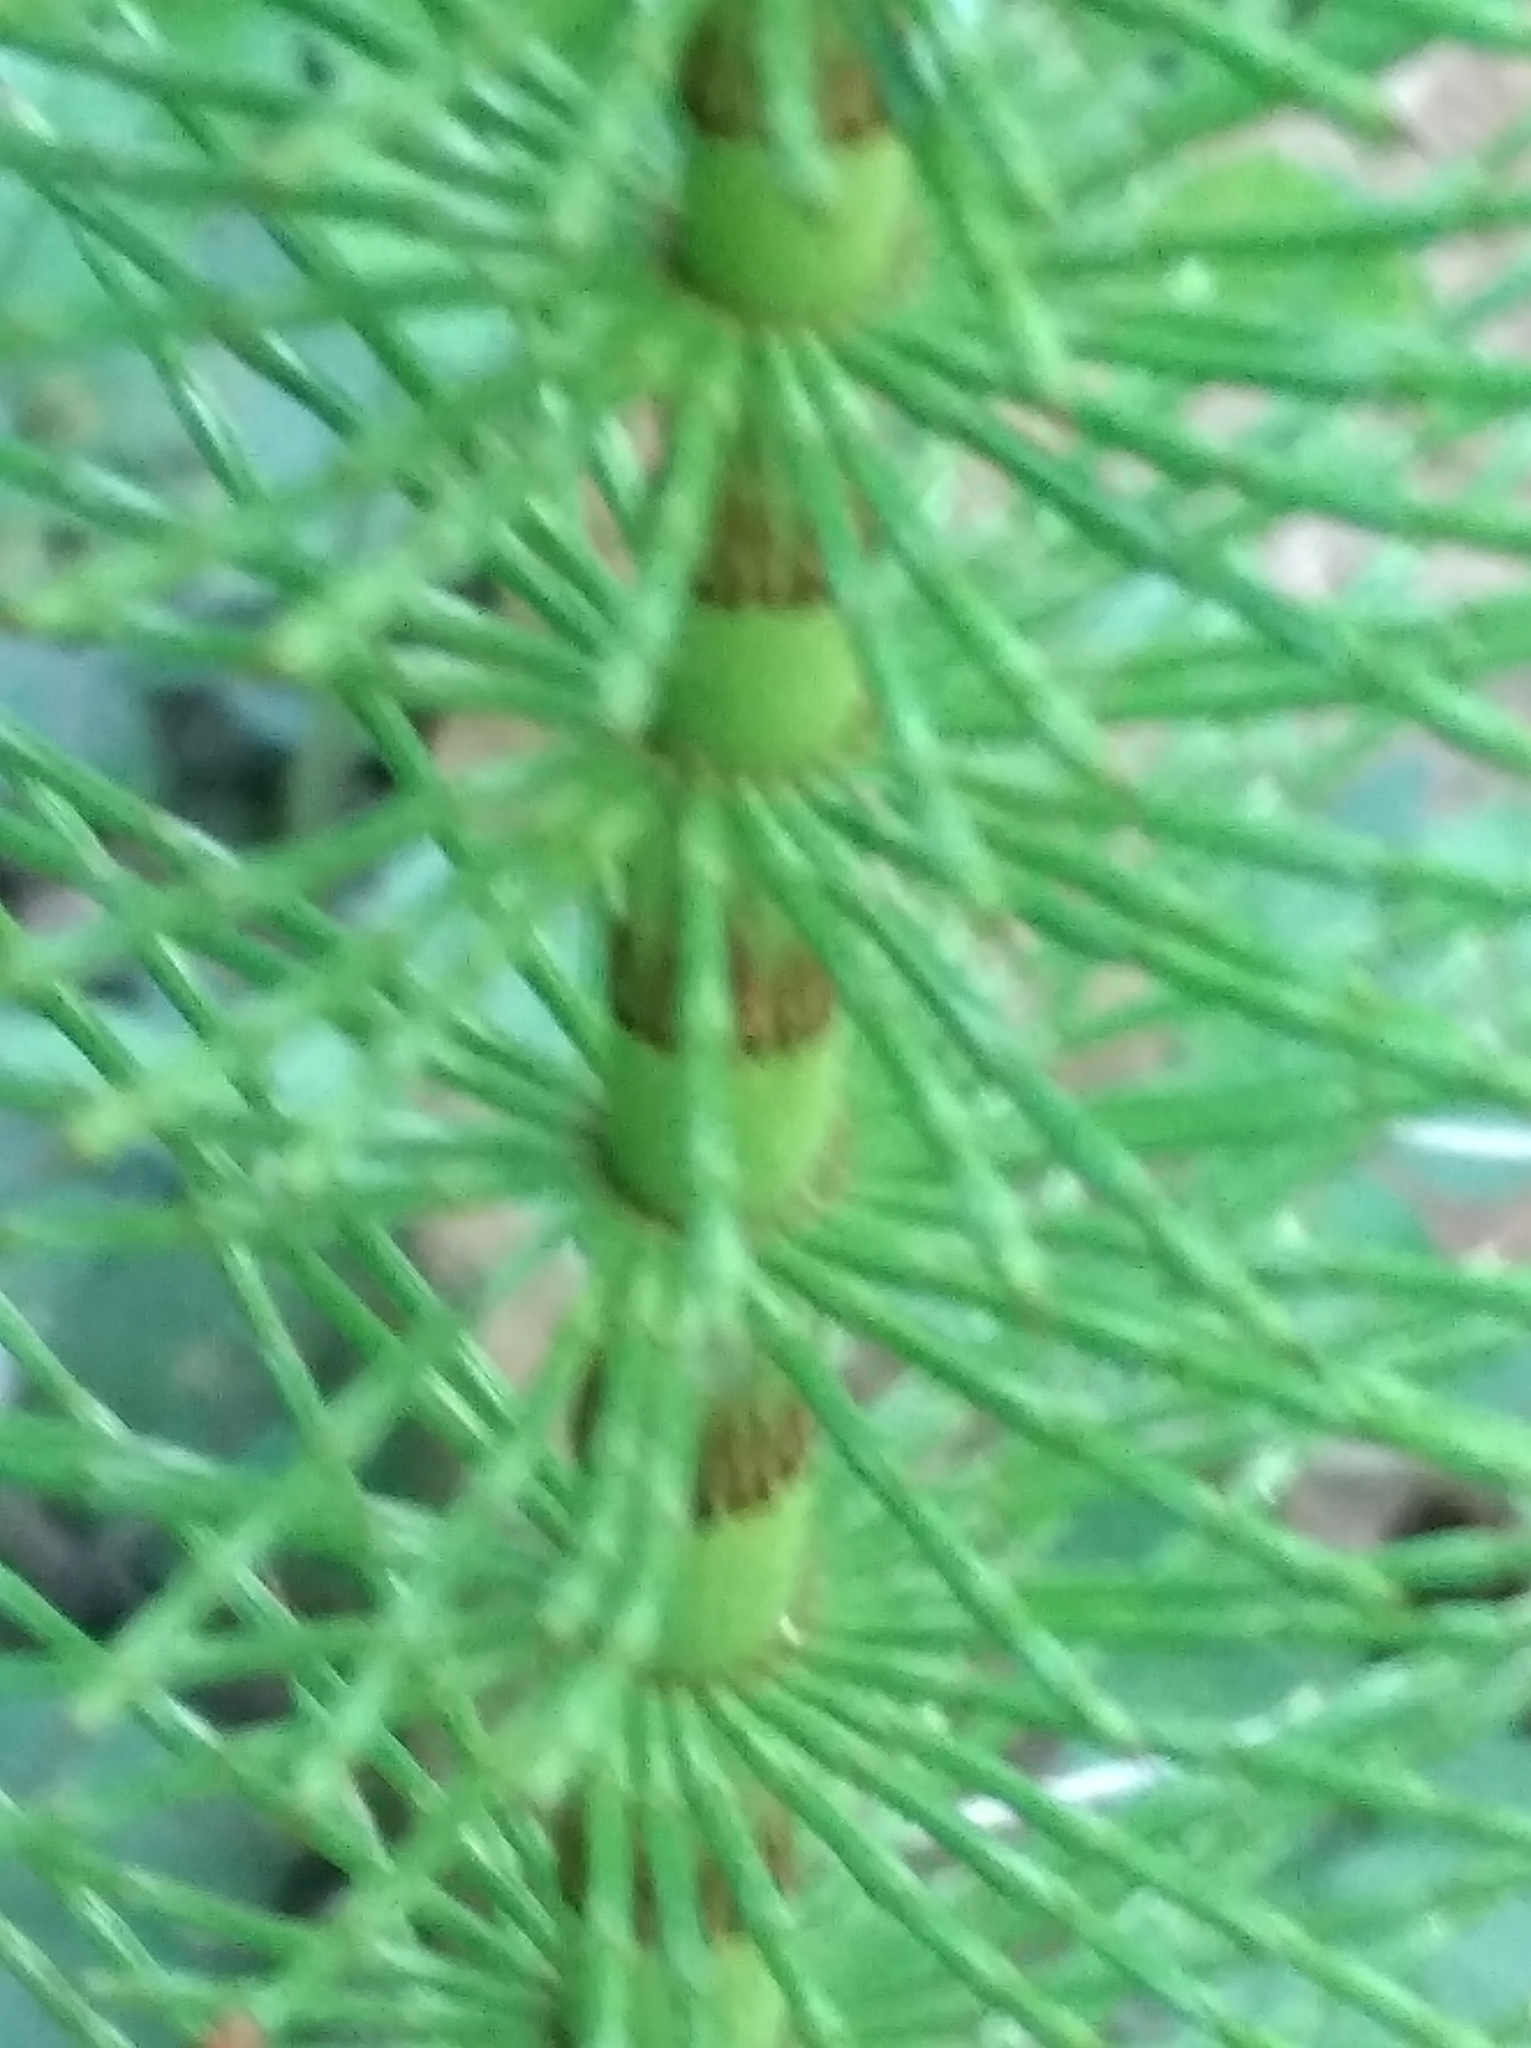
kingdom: Plantae
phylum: Tracheophyta
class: Polypodiopsida
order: Equisetales
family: Equisetaceae
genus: Equisetum
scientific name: Equisetum telmateia
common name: Great horsetail
